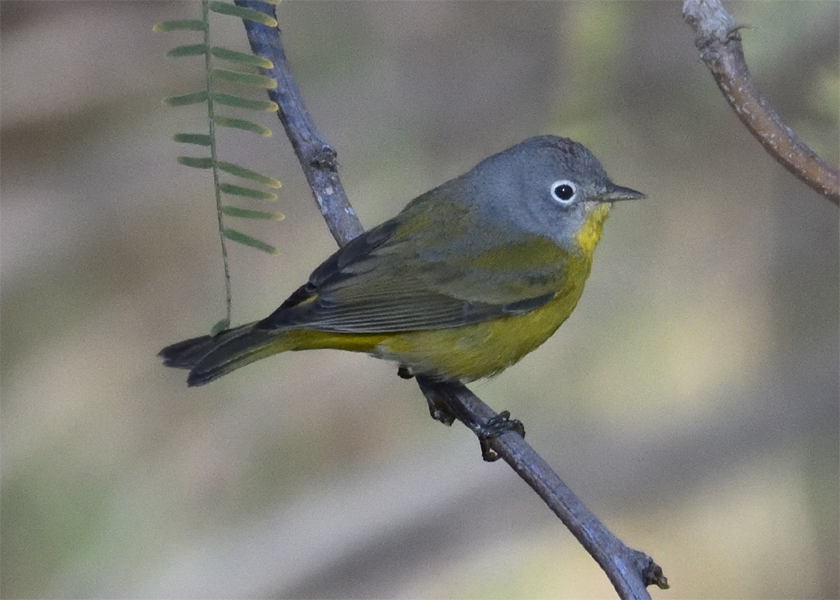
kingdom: Animalia
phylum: Chordata
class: Aves
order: Passeriformes
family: Parulidae
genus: Leiothlypis
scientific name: Leiothlypis ruficapilla
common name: Nashville warbler
